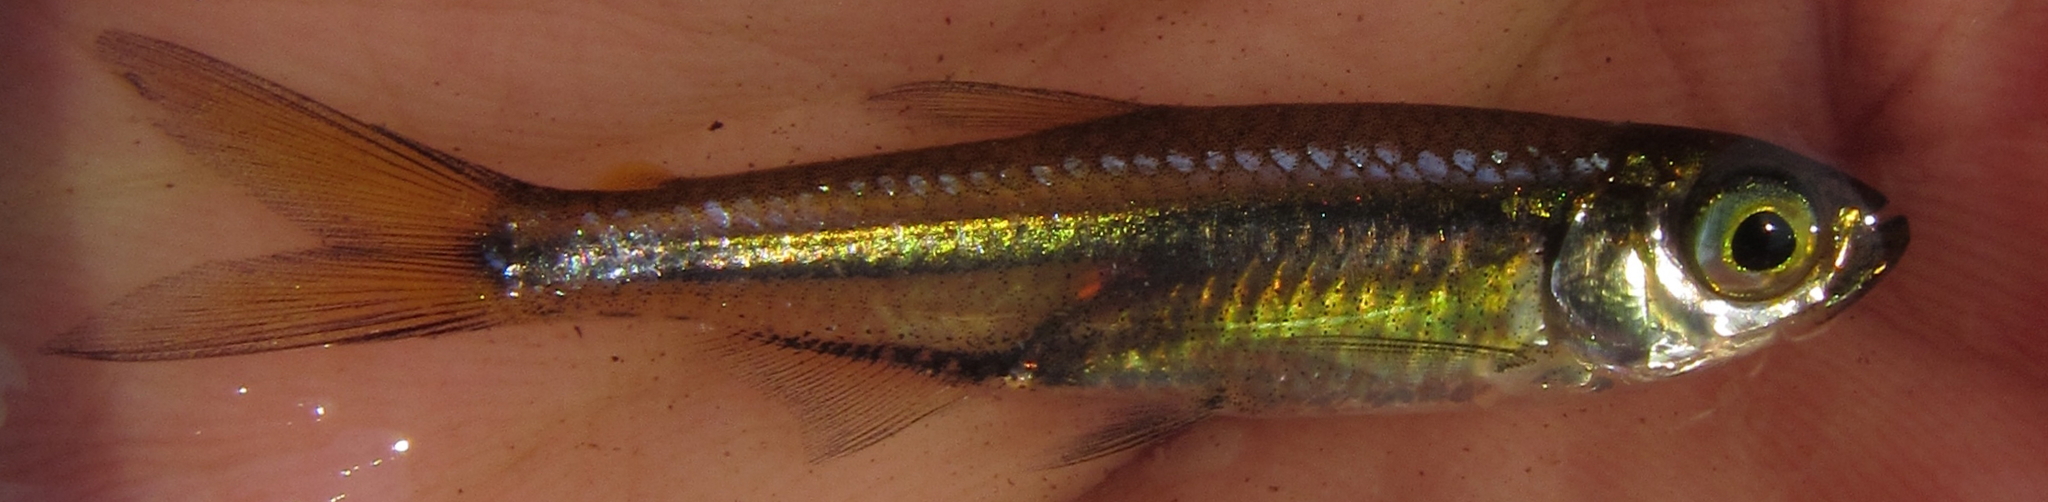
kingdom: Animalia
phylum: Chordata
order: Characiformes
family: Alestidae
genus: Rhabdalestes
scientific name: Rhabdalestes maunensis
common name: Slender robber
